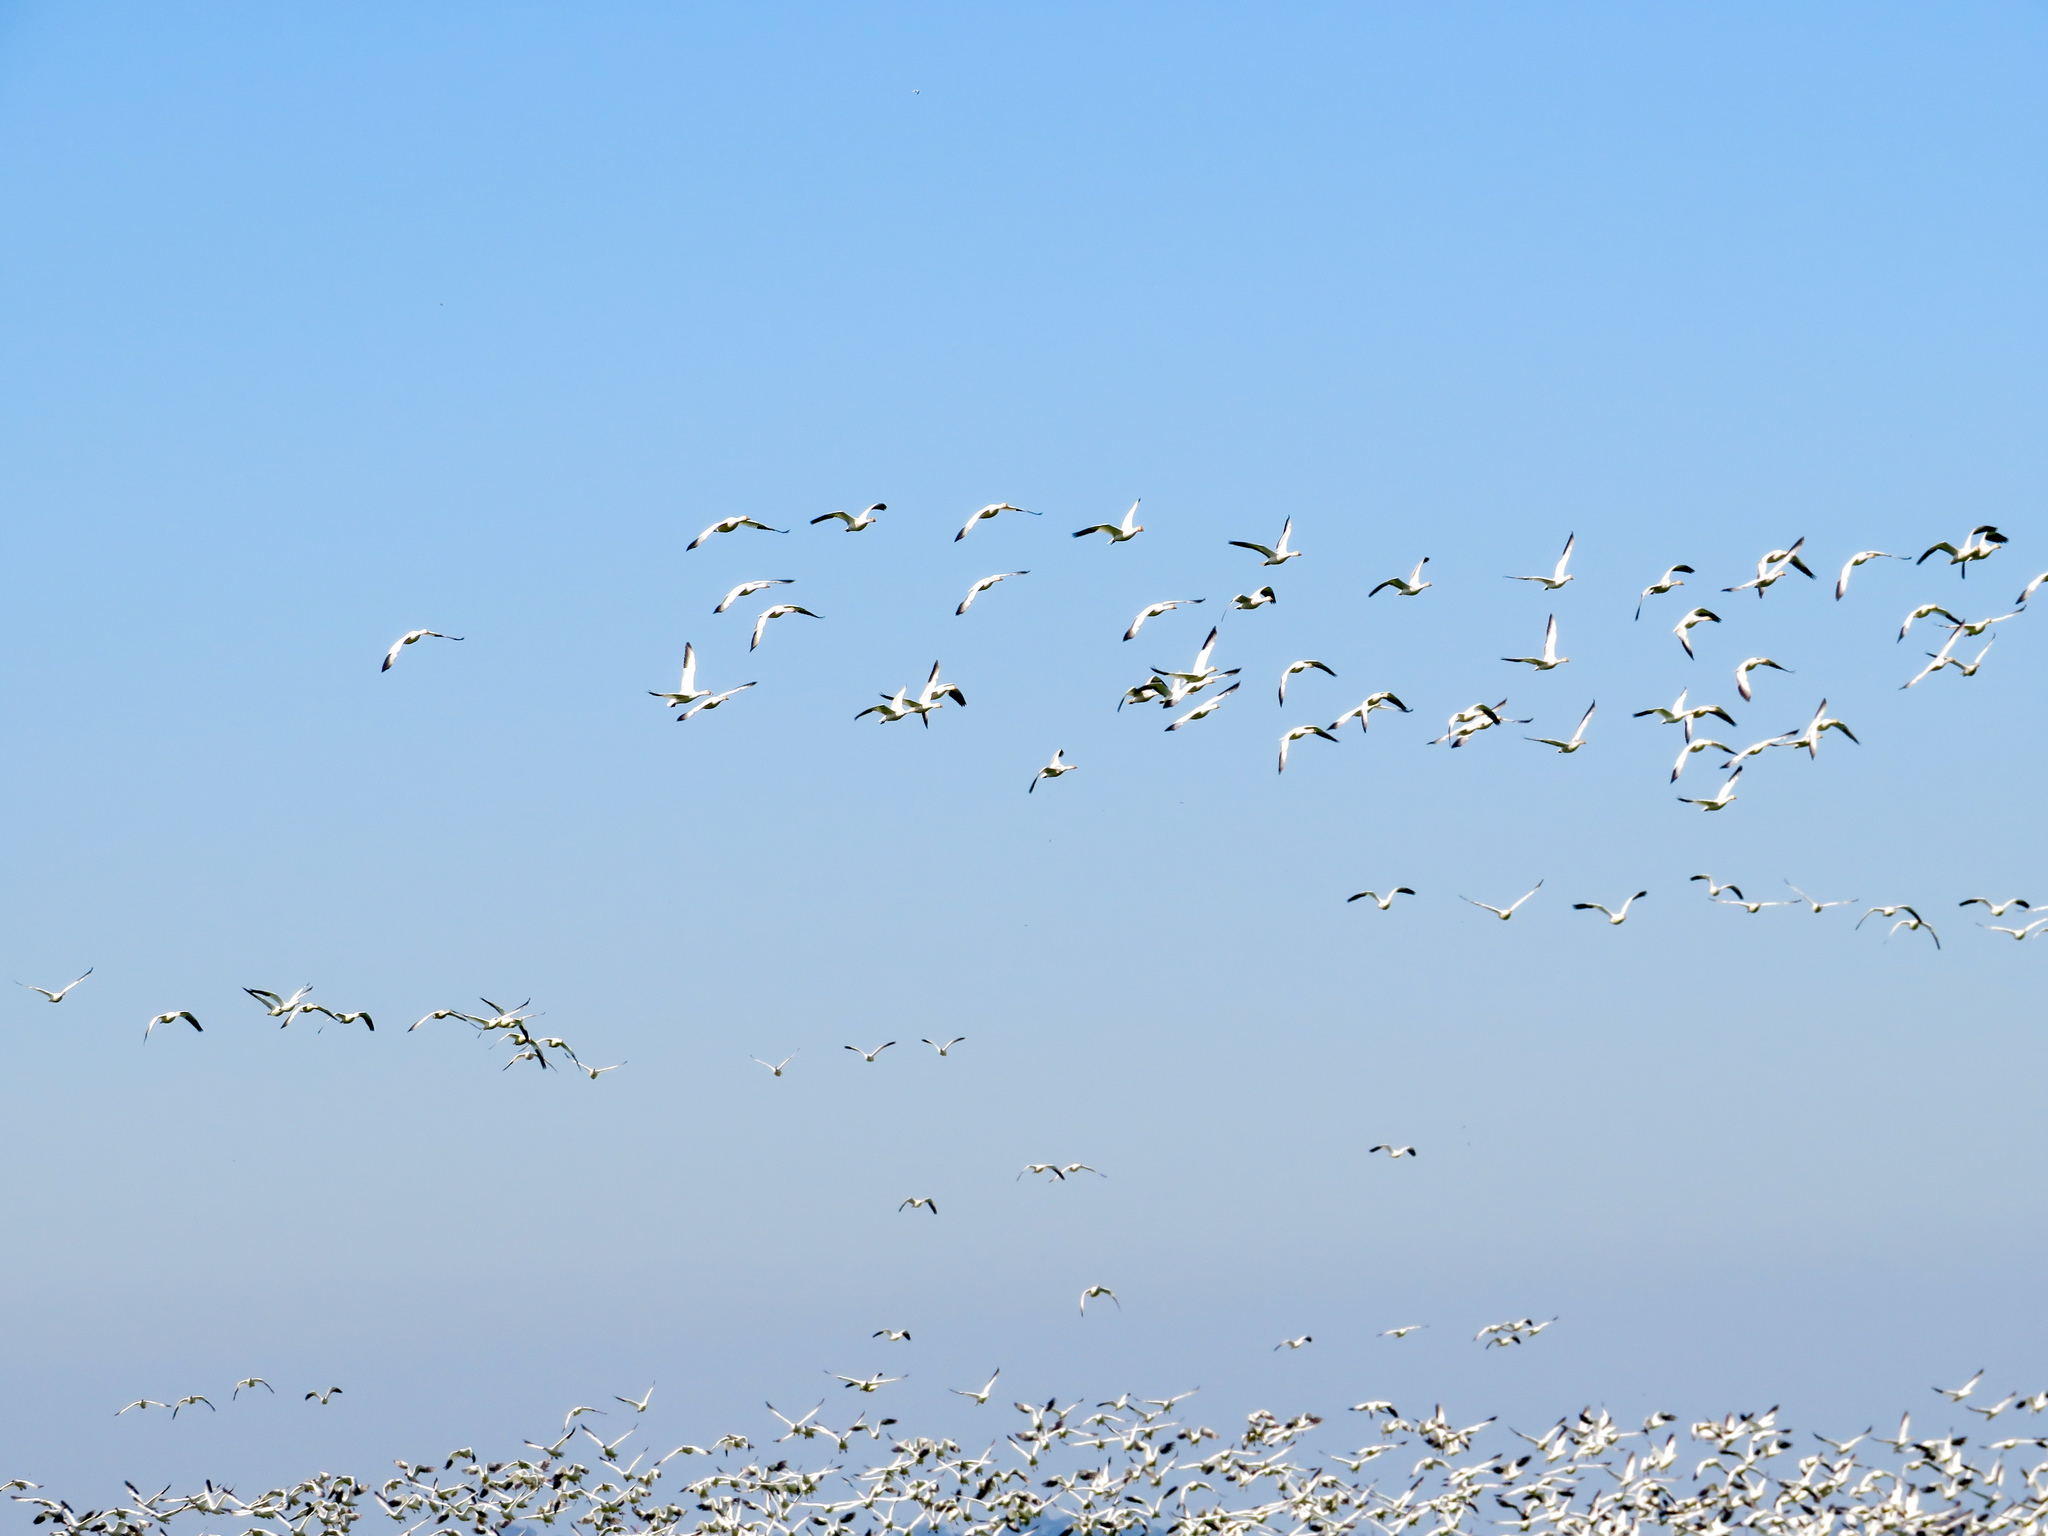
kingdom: Animalia
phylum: Chordata
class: Aves
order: Anseriformes
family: Anatidae
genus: Anser
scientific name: Anser caerulescens
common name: Snow goose
